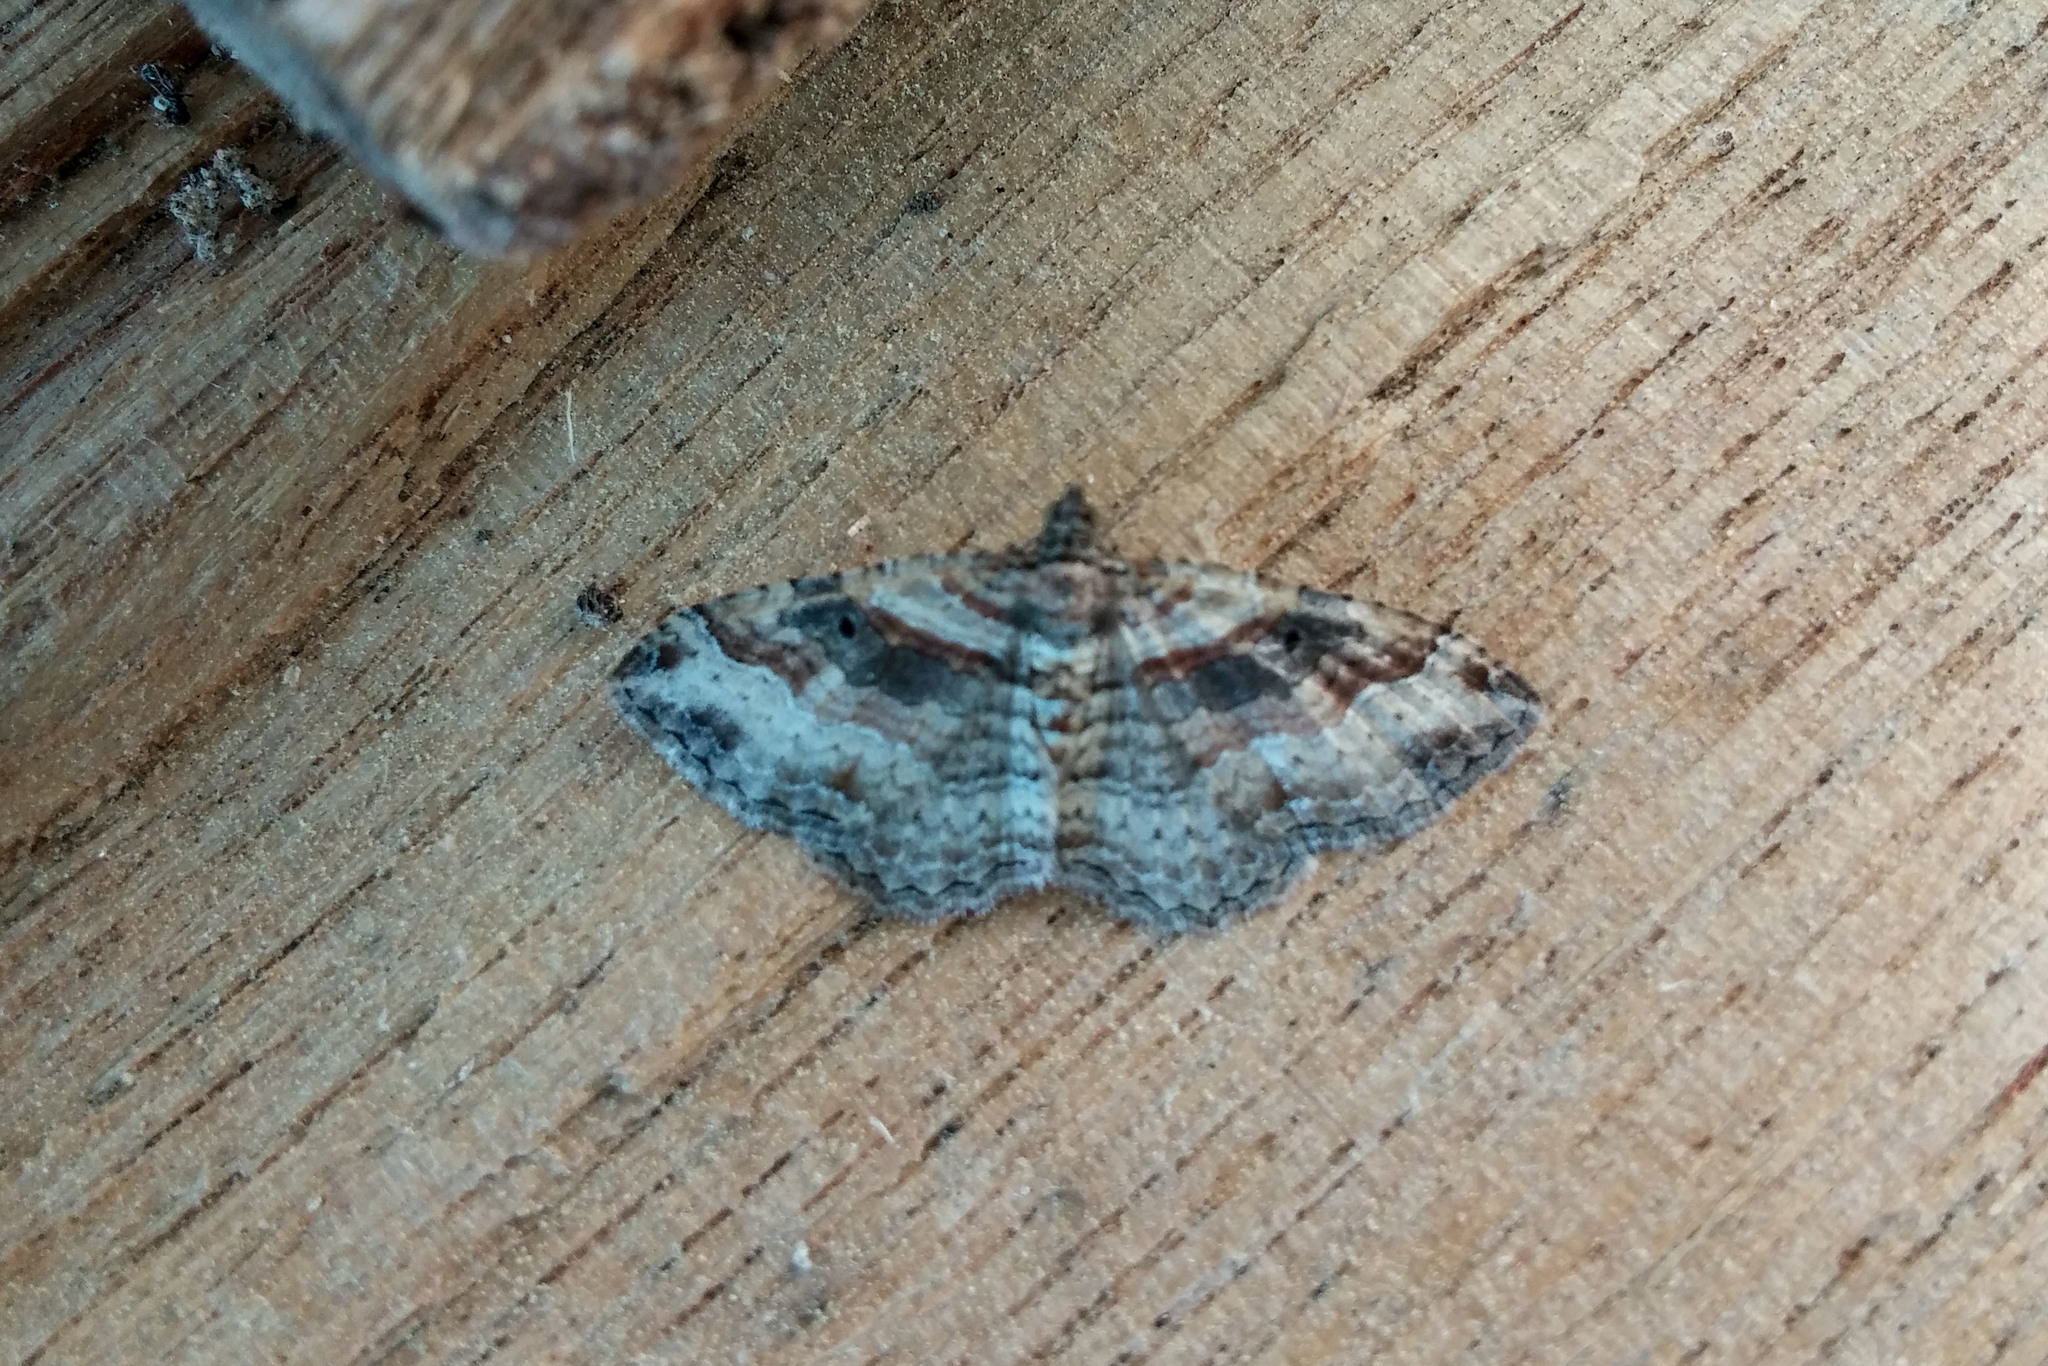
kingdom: Animalia
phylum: Arthropoda
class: Insecta
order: Lepidoptera
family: Geometridae
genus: Costaconvexa
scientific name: Costaconvexa centrostrigaria
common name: Bent-line carpet
